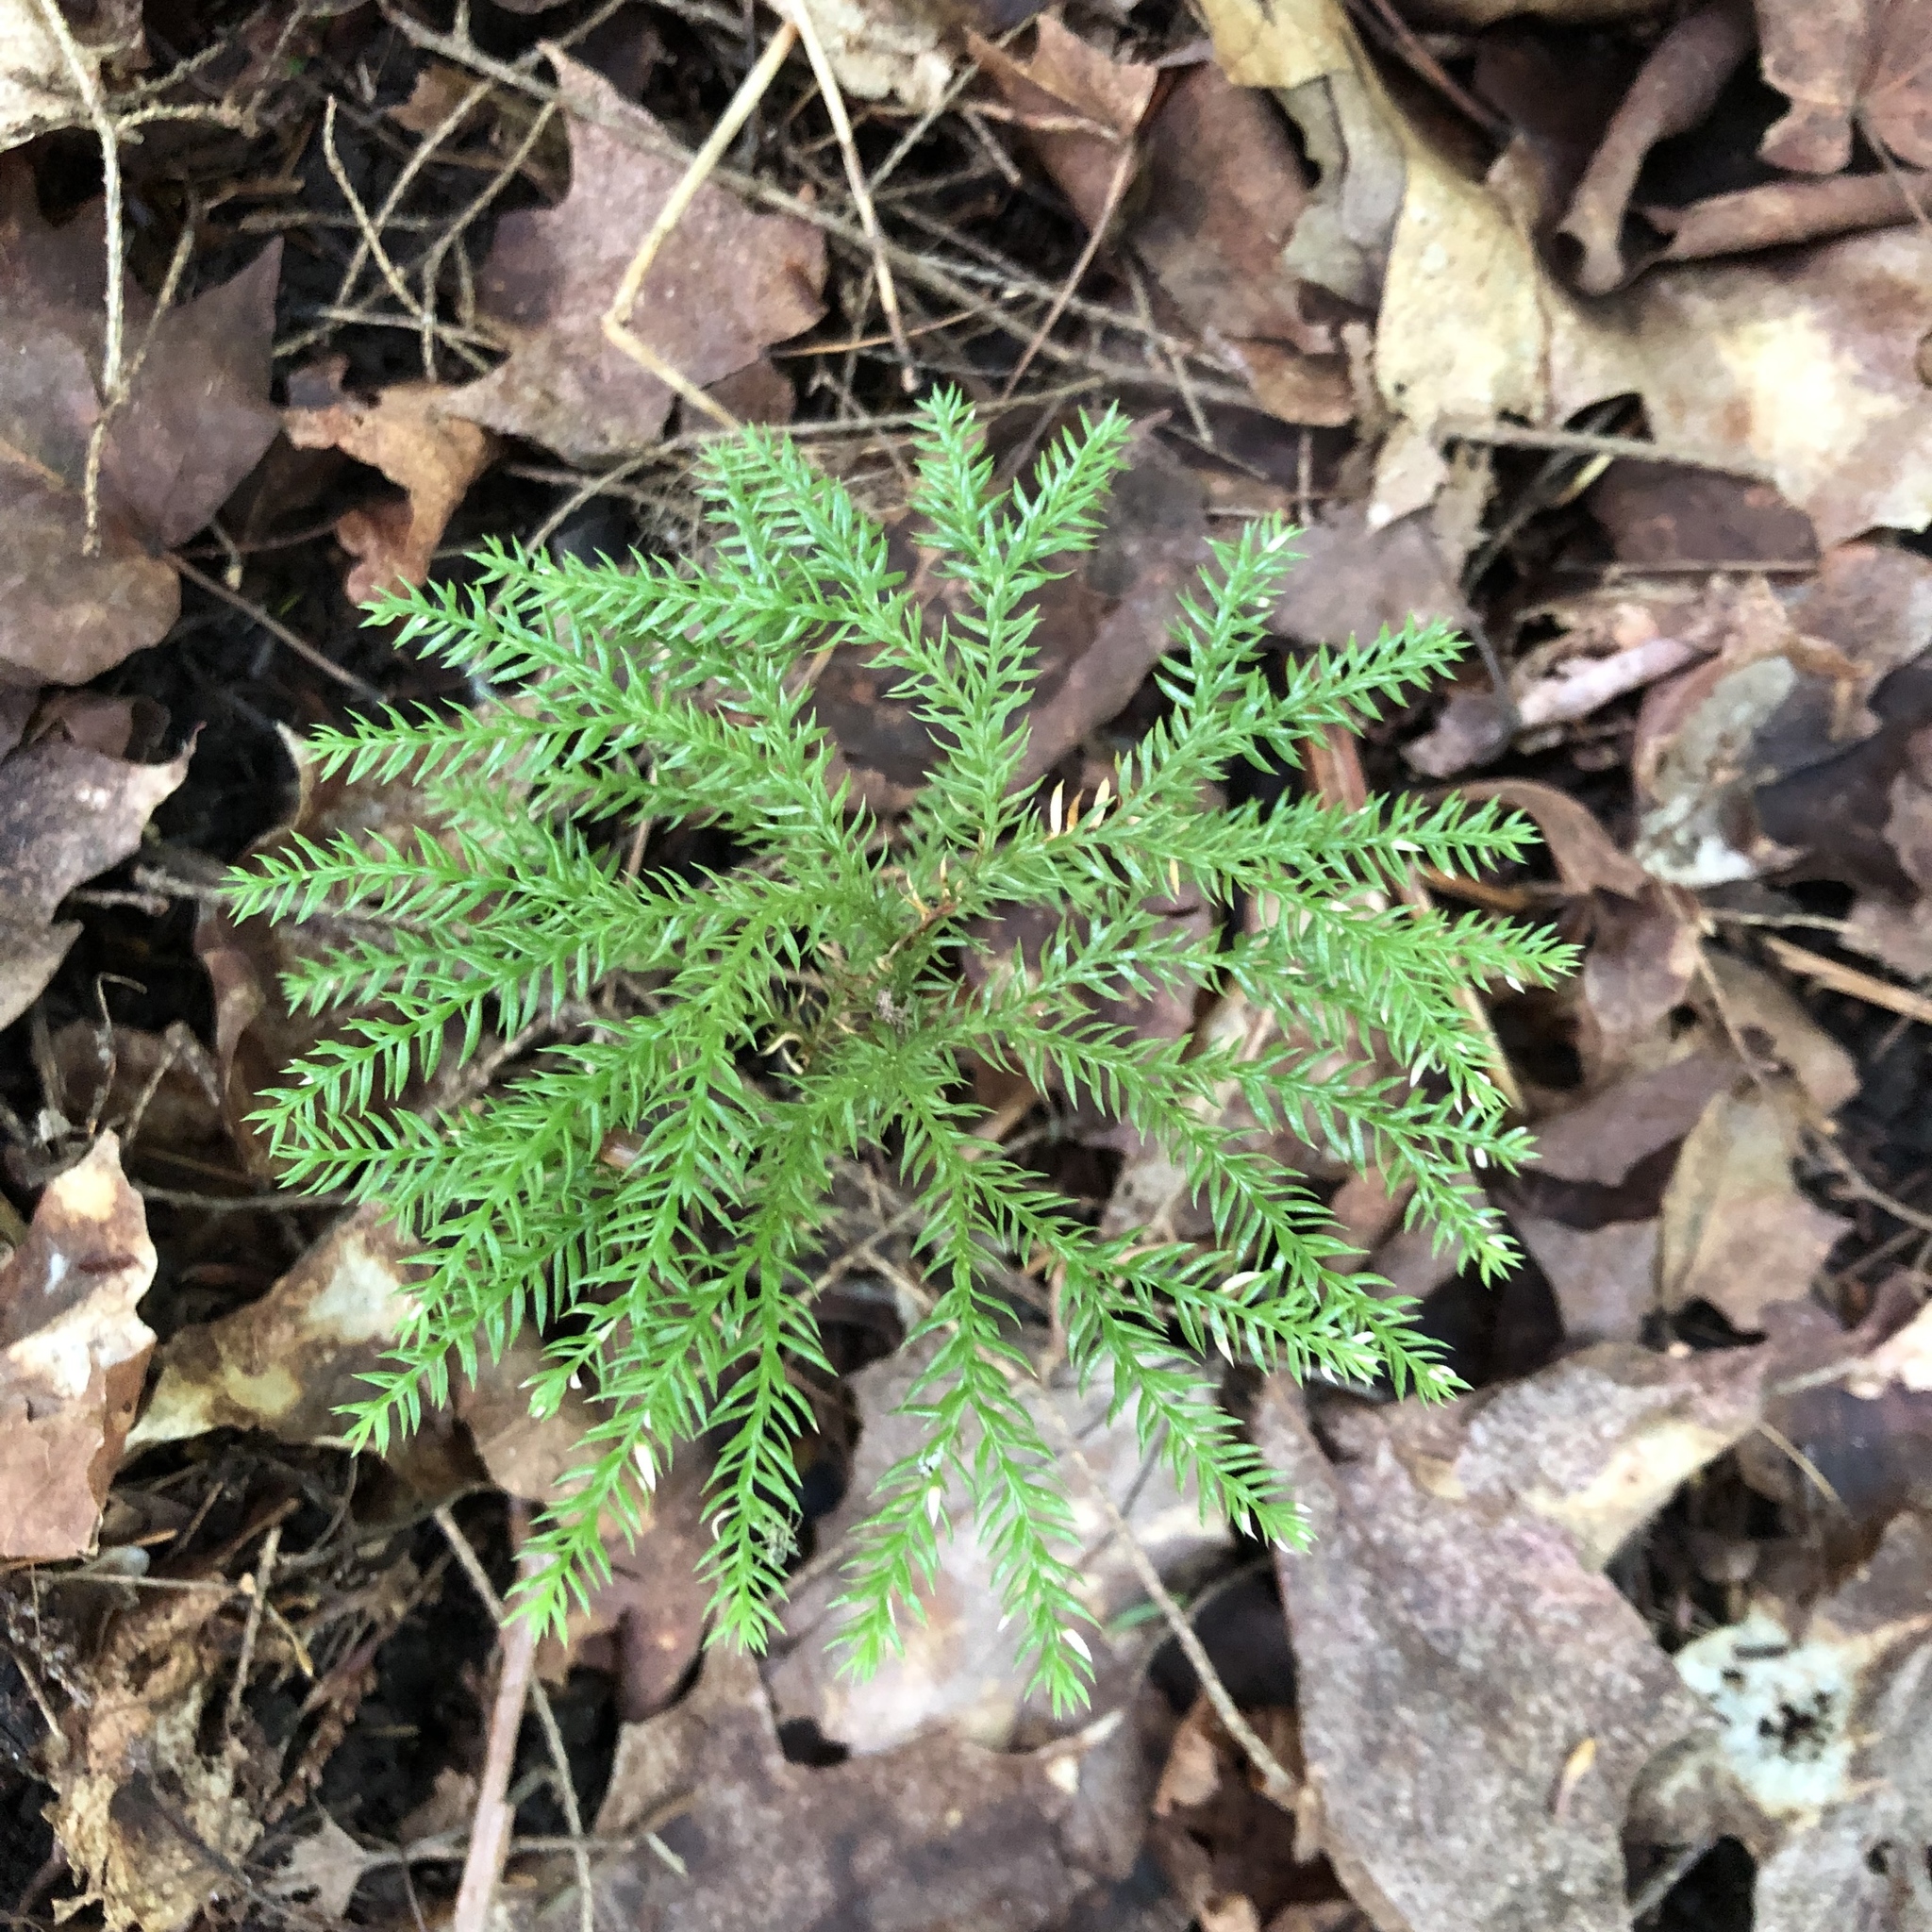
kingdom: Plantae
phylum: Tracheophyta
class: Lycopodiopsida
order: Lycopodiales
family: Lycopodiaceae
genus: Dendrolycopodium
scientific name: Dendrolycopodium dendroideum
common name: Northern tree-clubmoss
